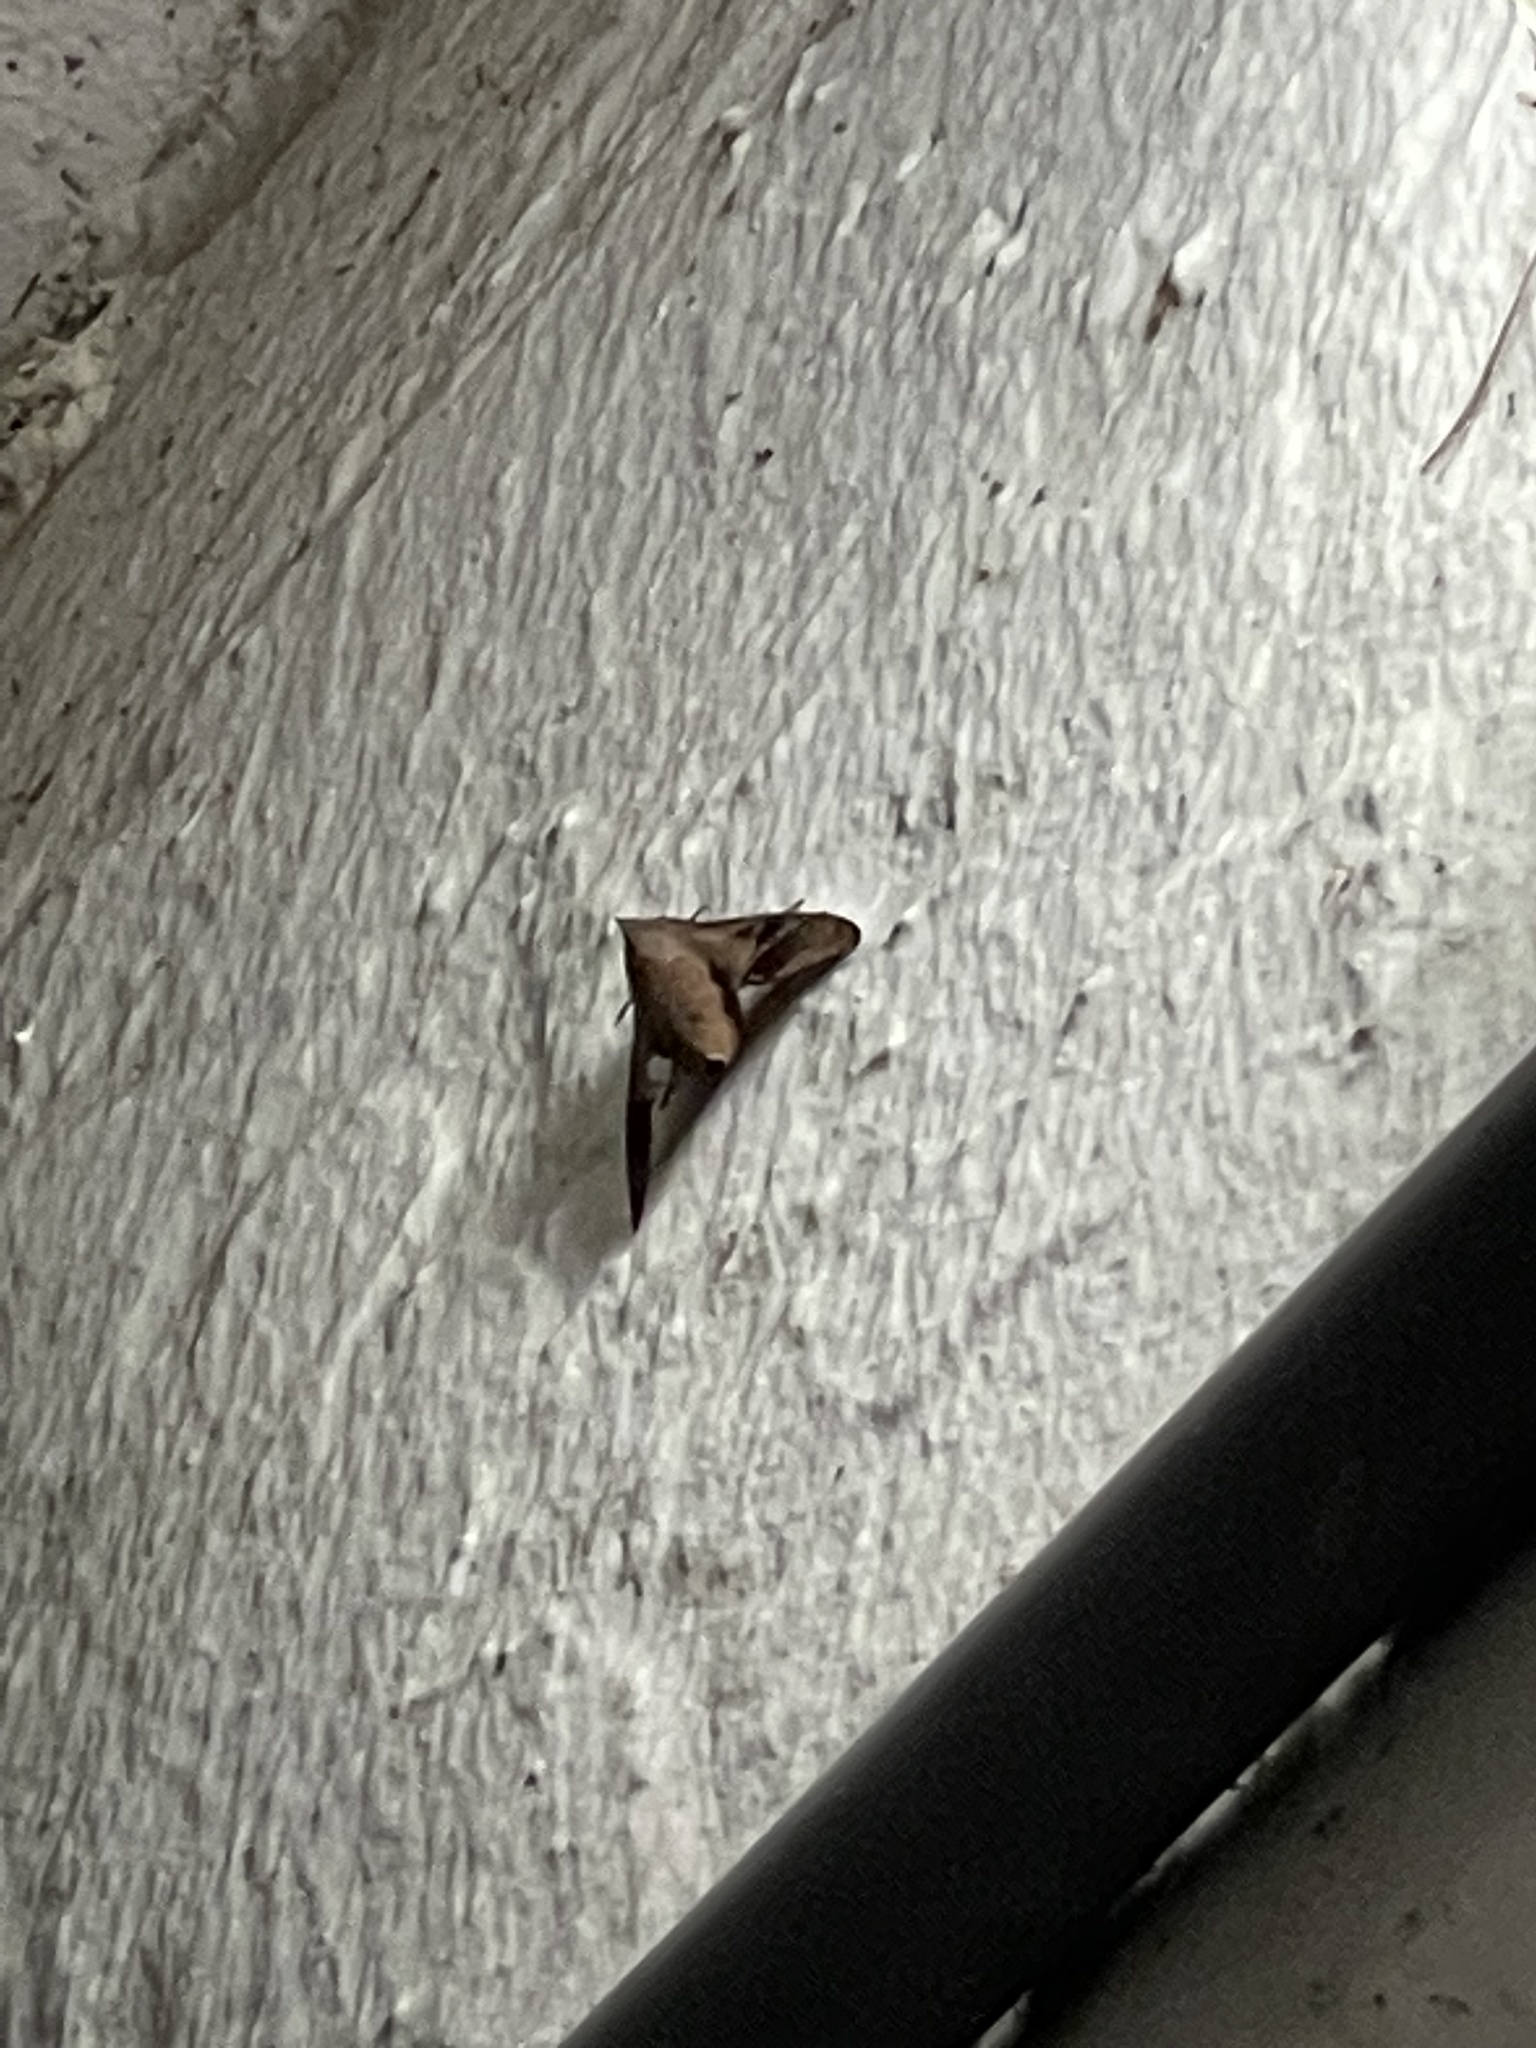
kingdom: Animalia
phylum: Arthropoda
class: Insecta
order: Lepidoptera
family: Sphingidae
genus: Enyo
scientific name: Enyo lugubris
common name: Mournful sphinx
